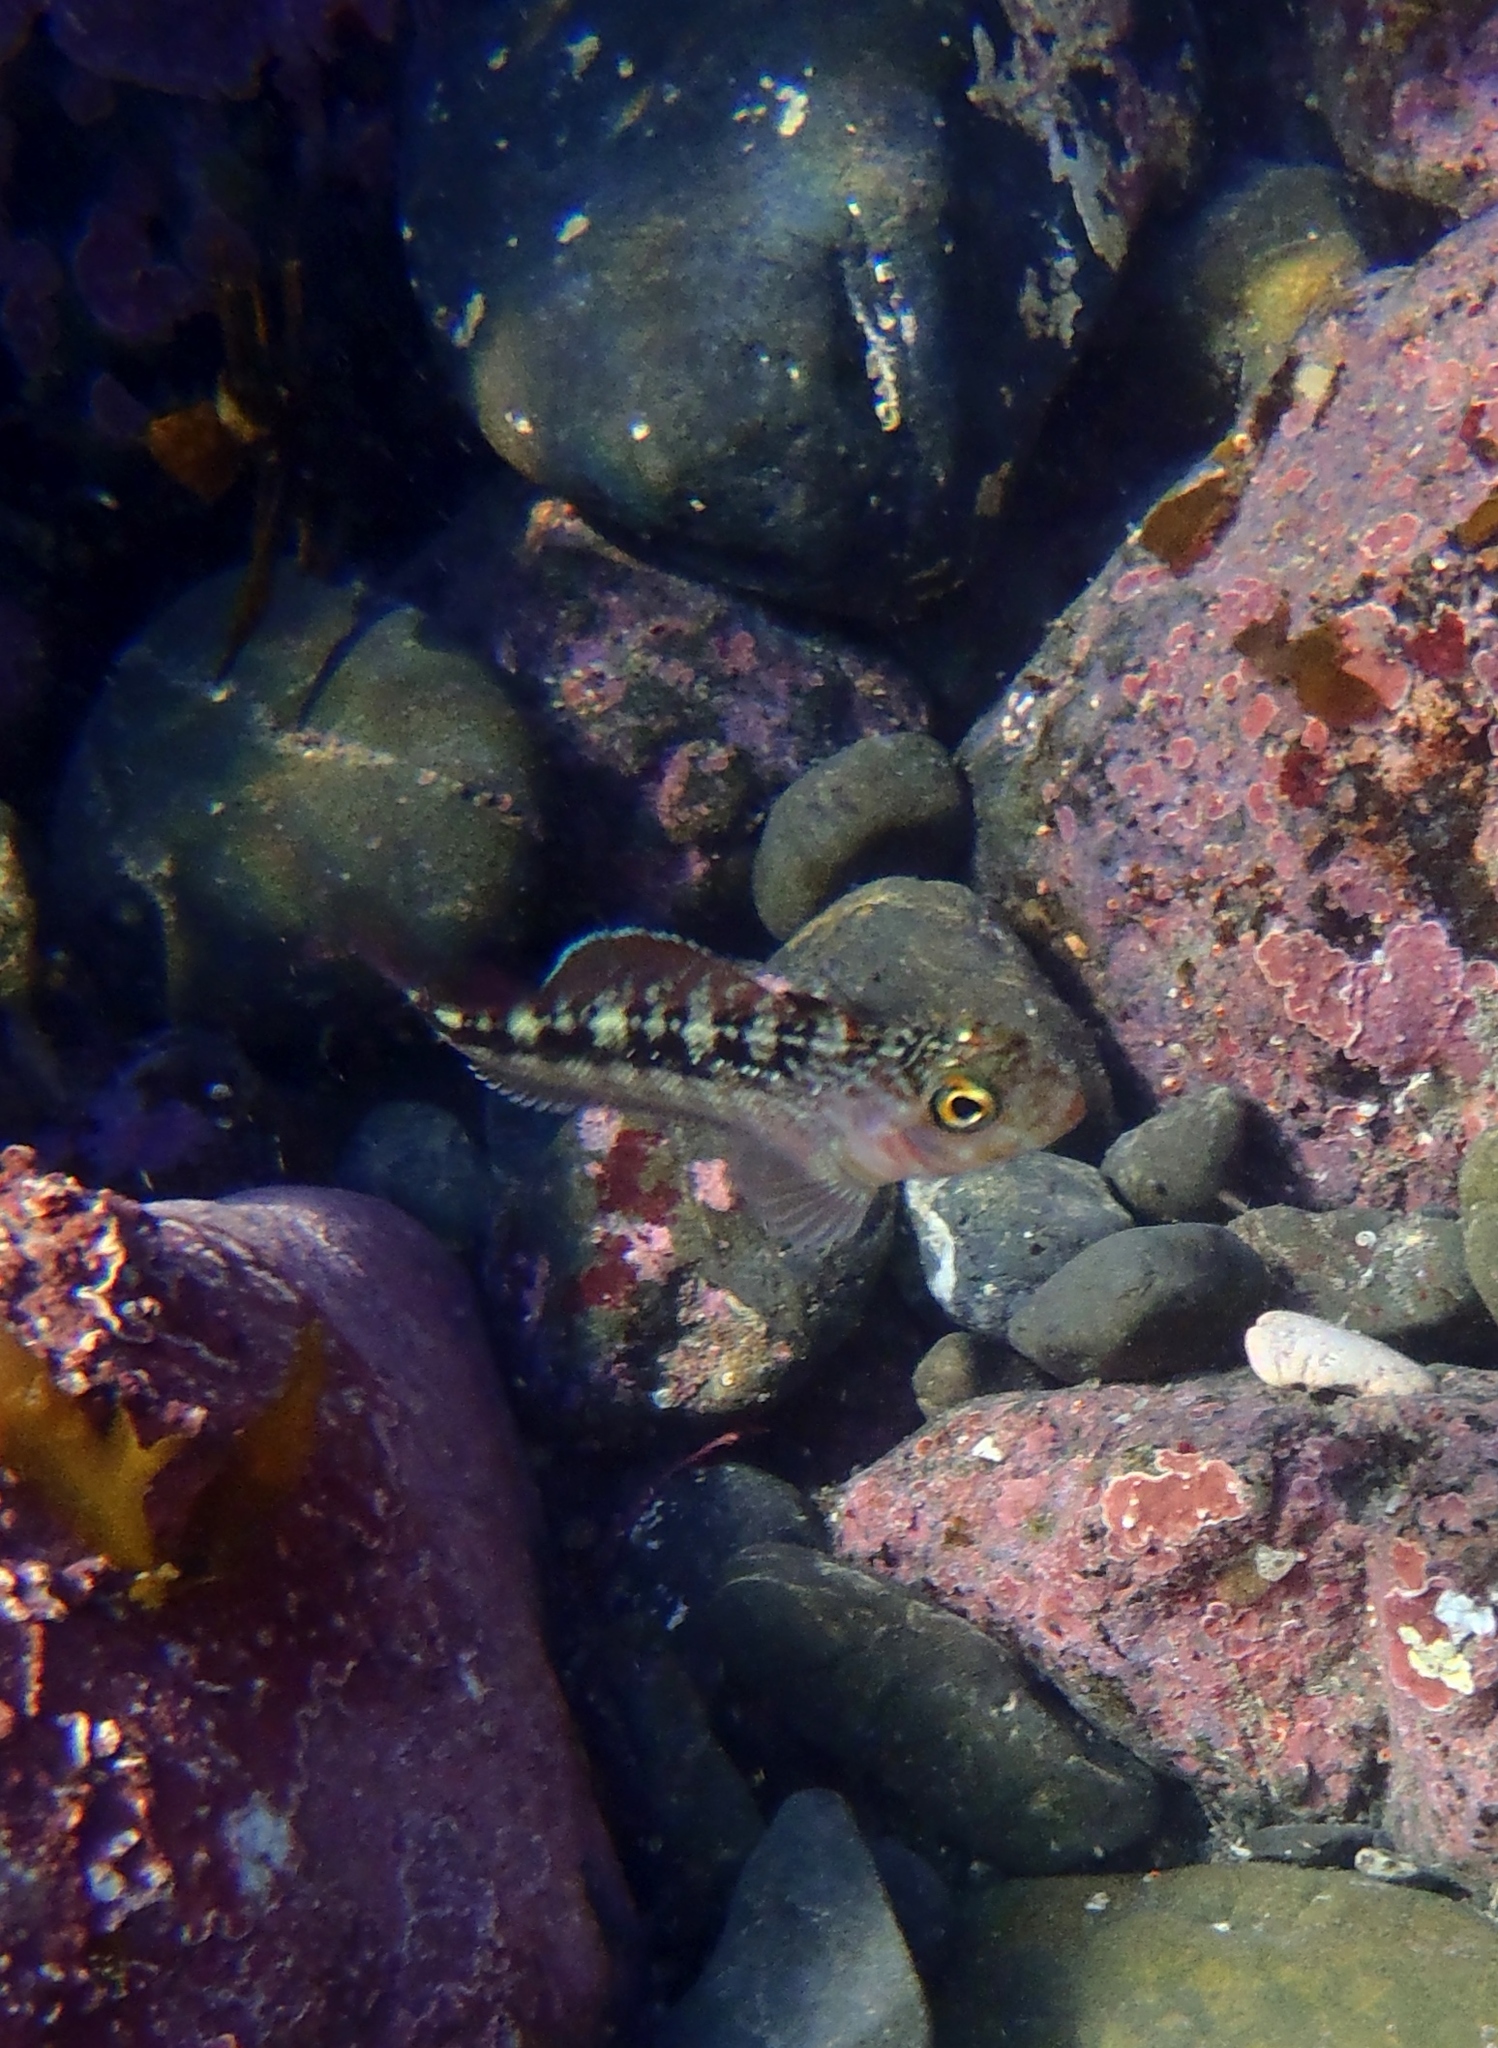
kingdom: Animalia
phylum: Chordata
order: Perciformes
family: Tripterygiidae
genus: Forsterygion
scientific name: Forsterygion varium
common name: Variable triplefin
